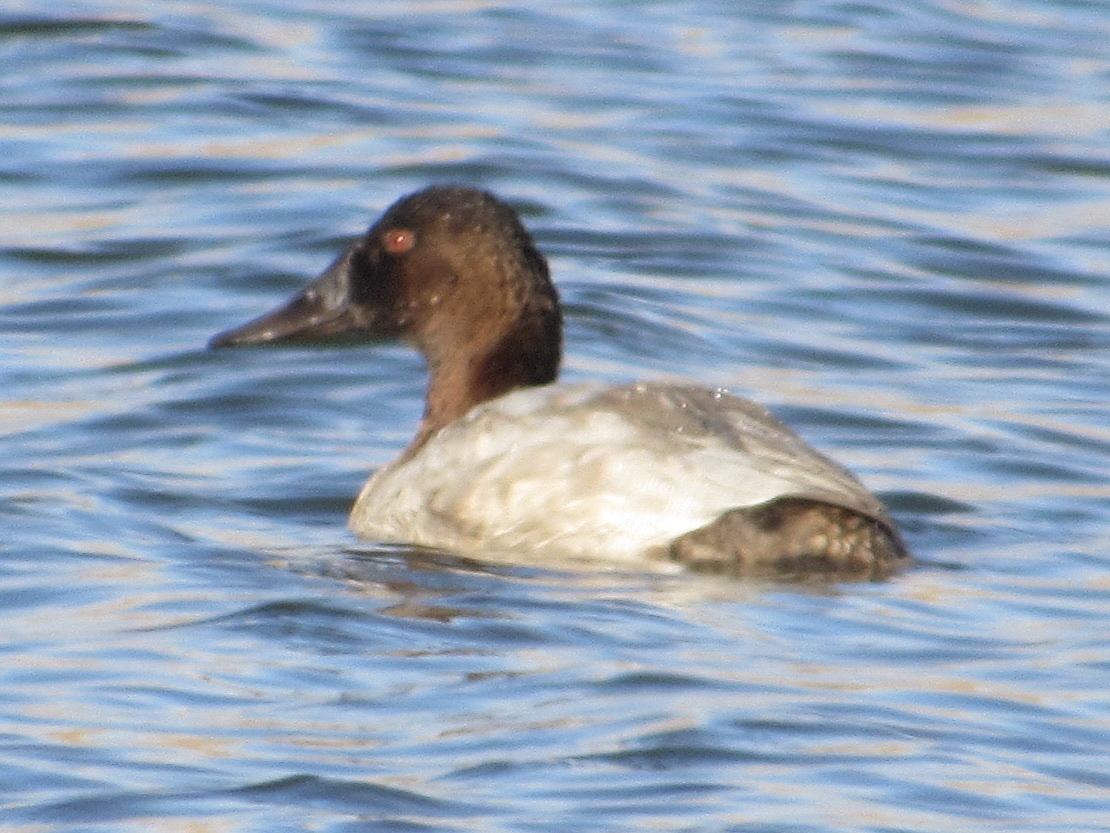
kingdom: Animalia
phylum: Chordata
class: Aves
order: Anseriformes
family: Anatidae
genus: Aythya
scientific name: Aythya valisineria
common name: Canvasback
